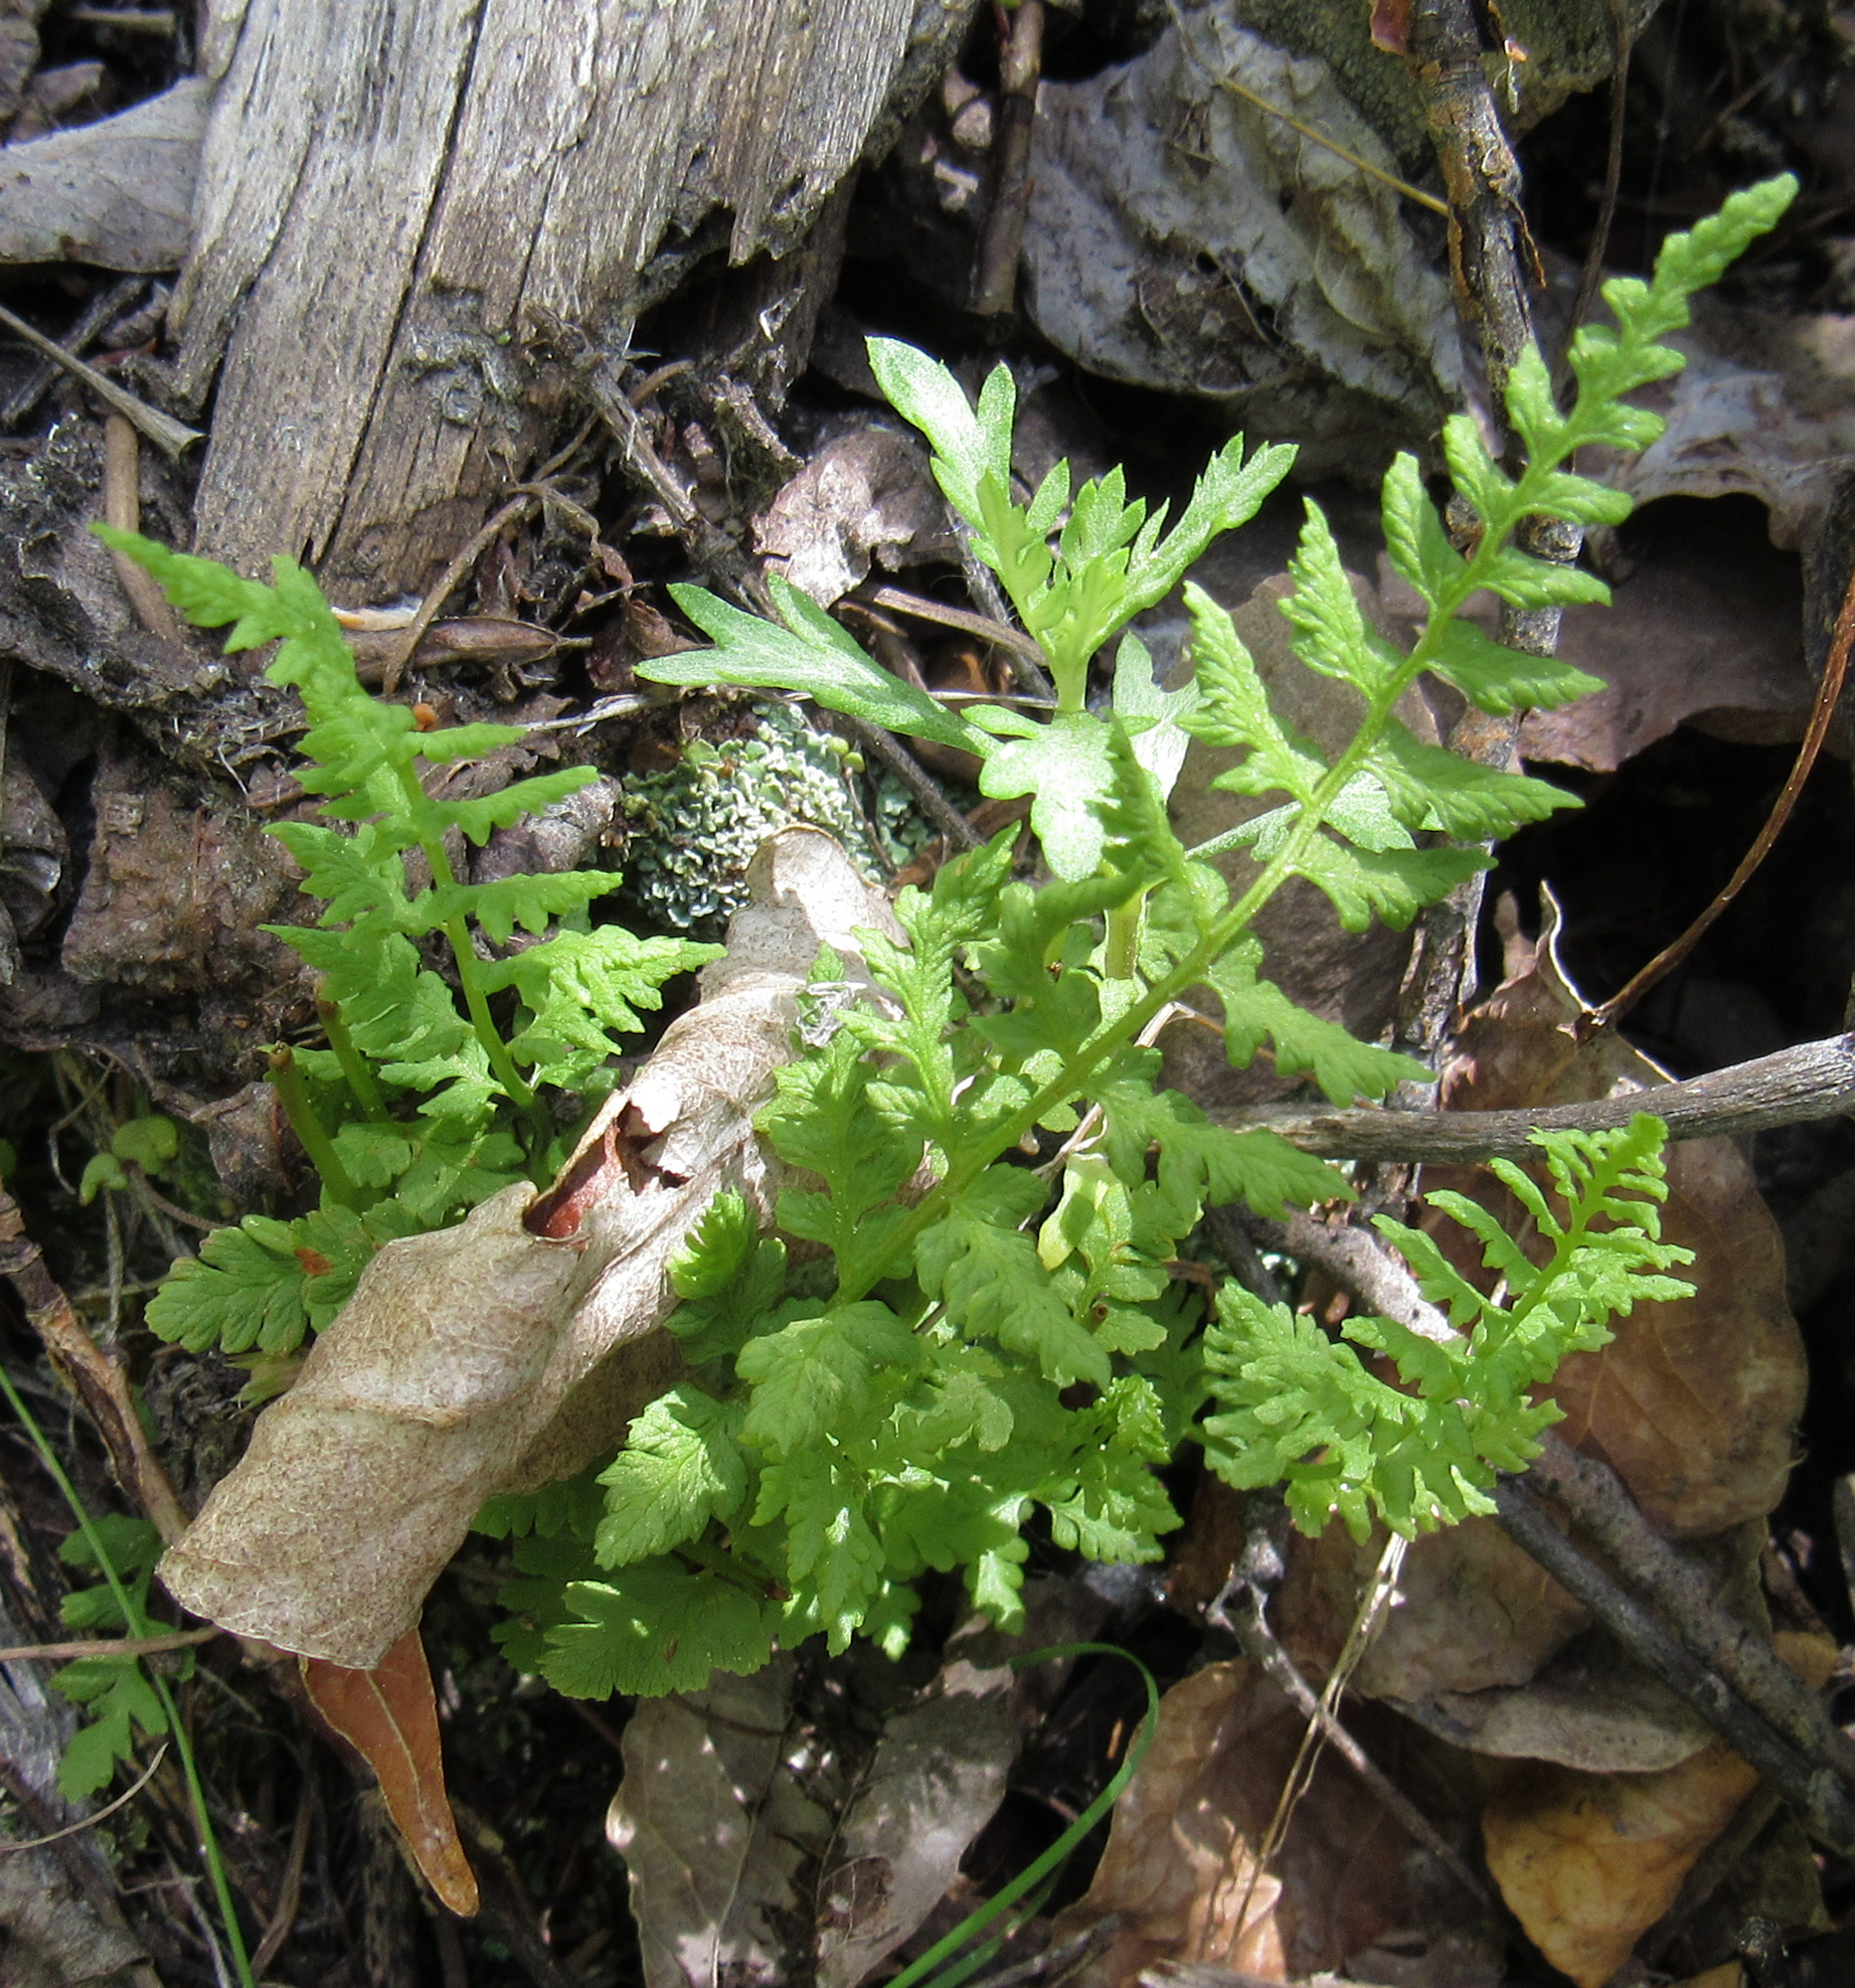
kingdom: Plantae
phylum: Tracheophyta
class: Polypodiopsida
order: Polypodiales
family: Cystopteridaceae
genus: Cystopteris
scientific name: Cystopteris fragilis
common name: Brittle bladder fern
